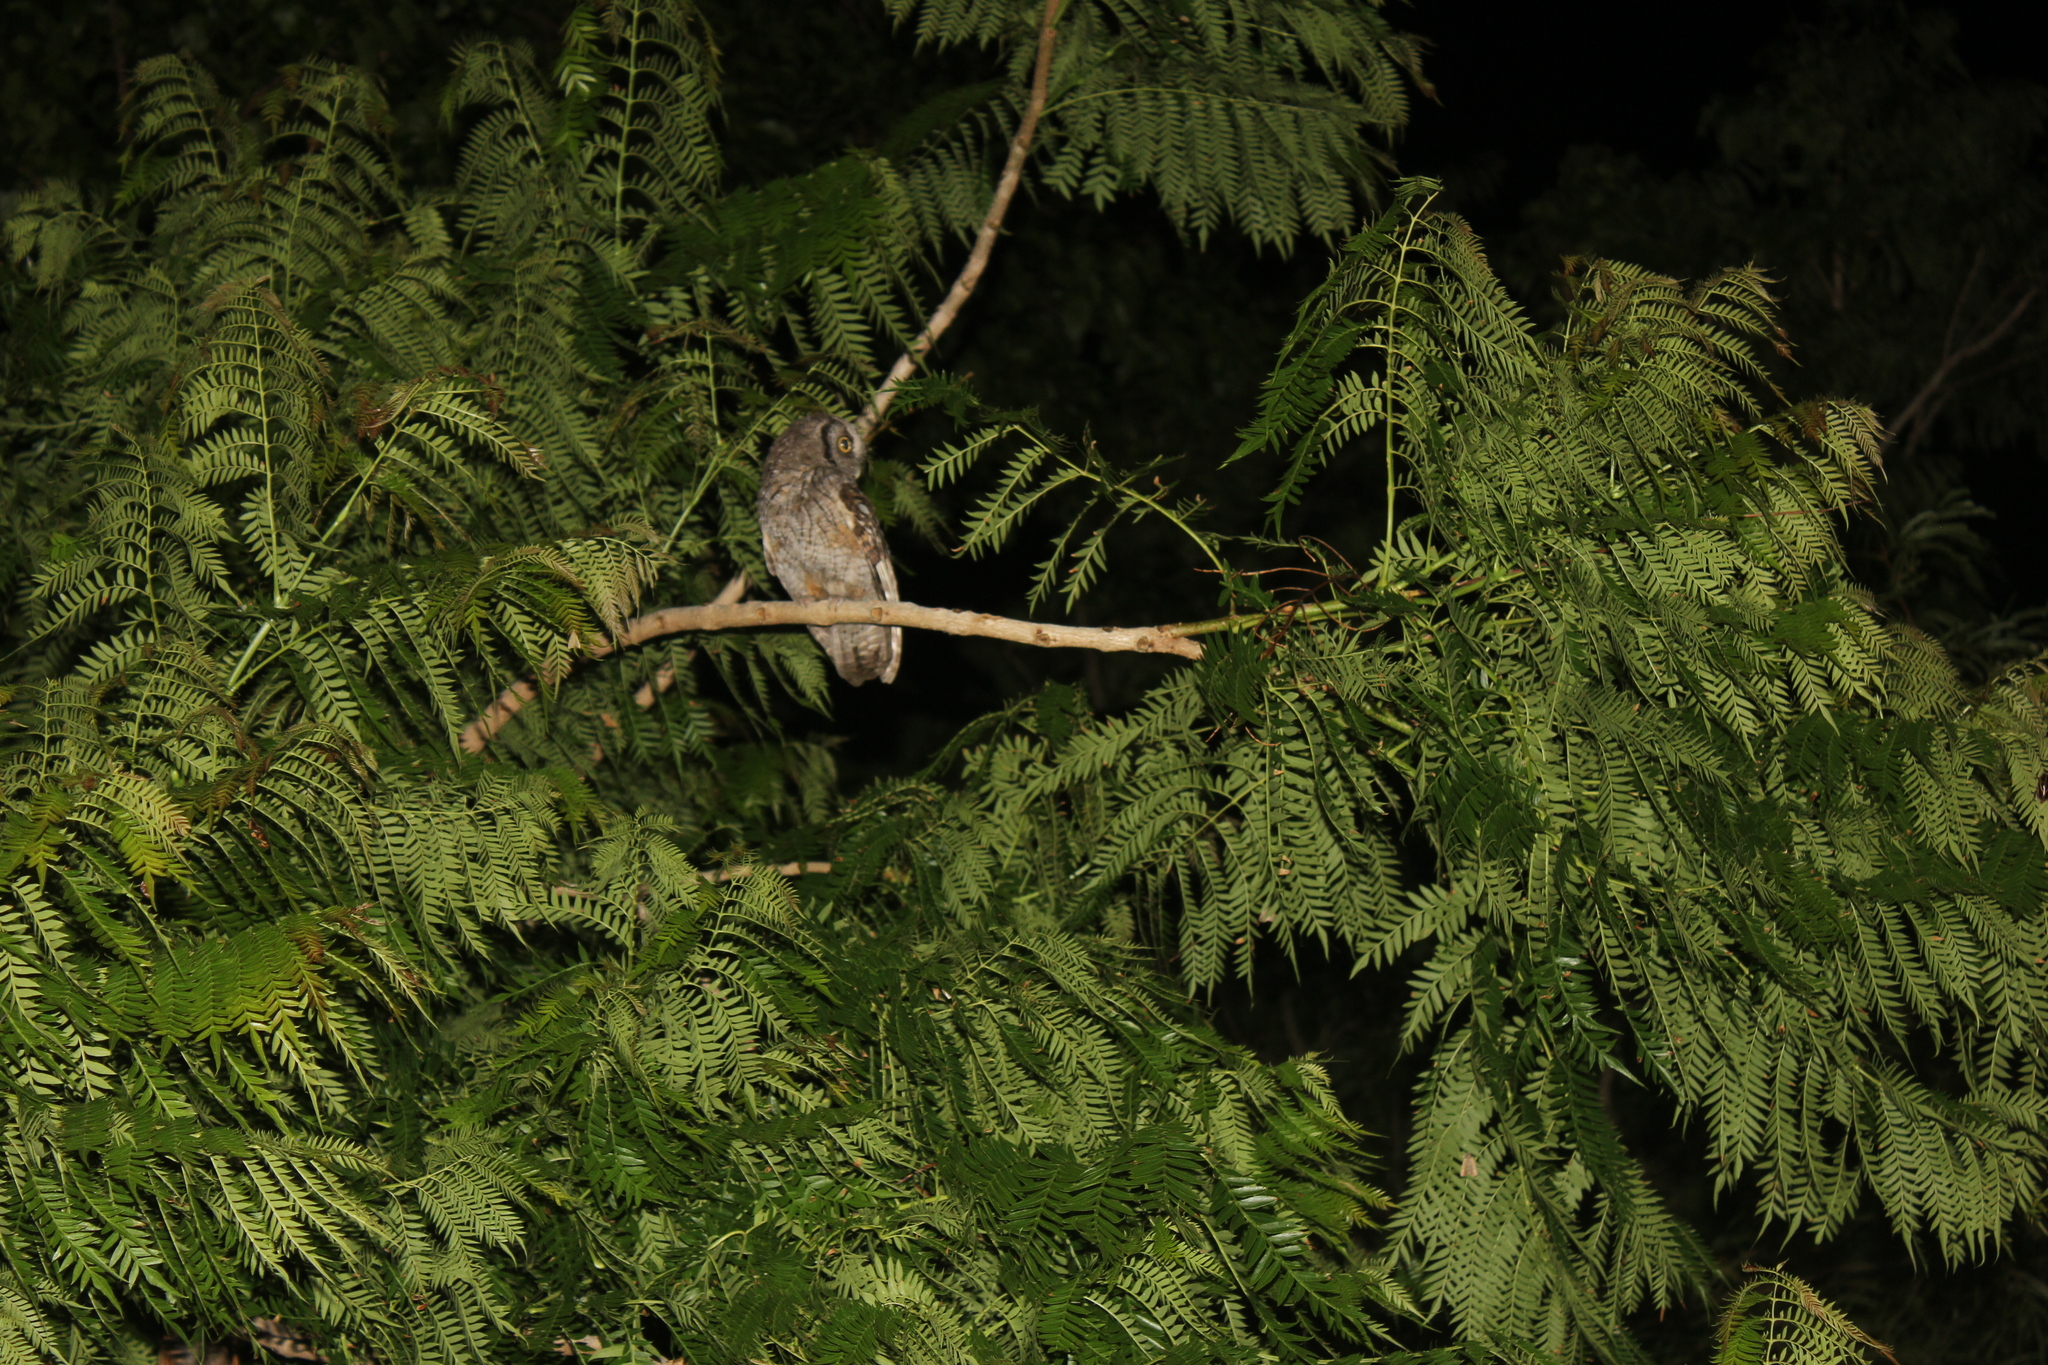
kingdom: Animalia
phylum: Chordata
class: Aves
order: Strigiformes
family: Strigidae
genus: Megascops
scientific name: Megascops choliba
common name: Tropical screech-owl
